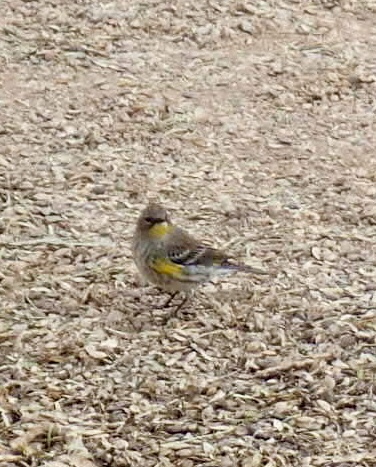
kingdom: Animalia
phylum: Chordata
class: Aves
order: Passeriformes
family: Parulidae
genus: Setophaga
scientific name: Setophaga coronata
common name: Myrtle warbler
